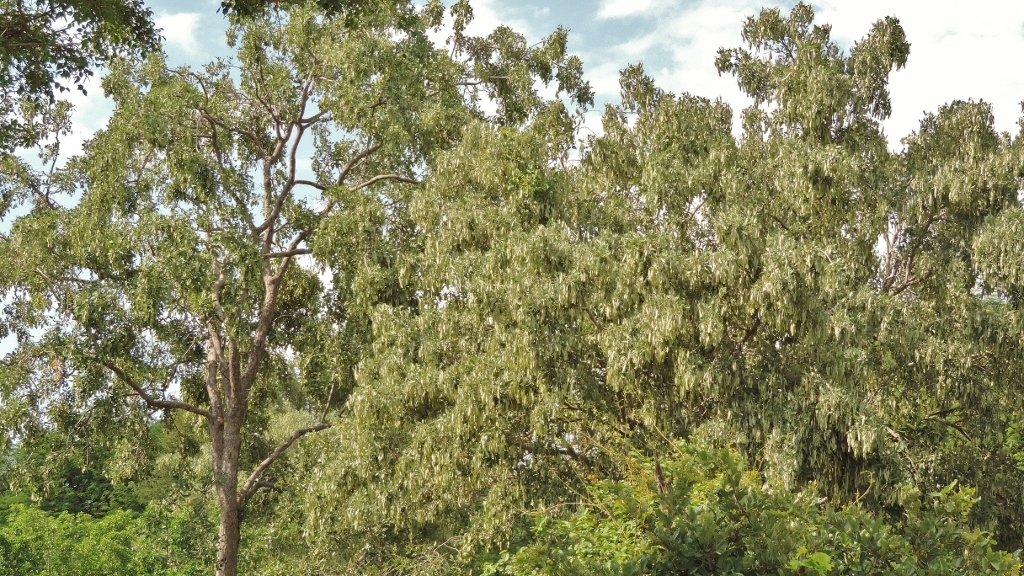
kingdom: Plantae
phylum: Tracheophyta
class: Magnoliopsida
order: Fabales
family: Fabaceae
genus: Philenoptera
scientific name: Philenoptera violacea
